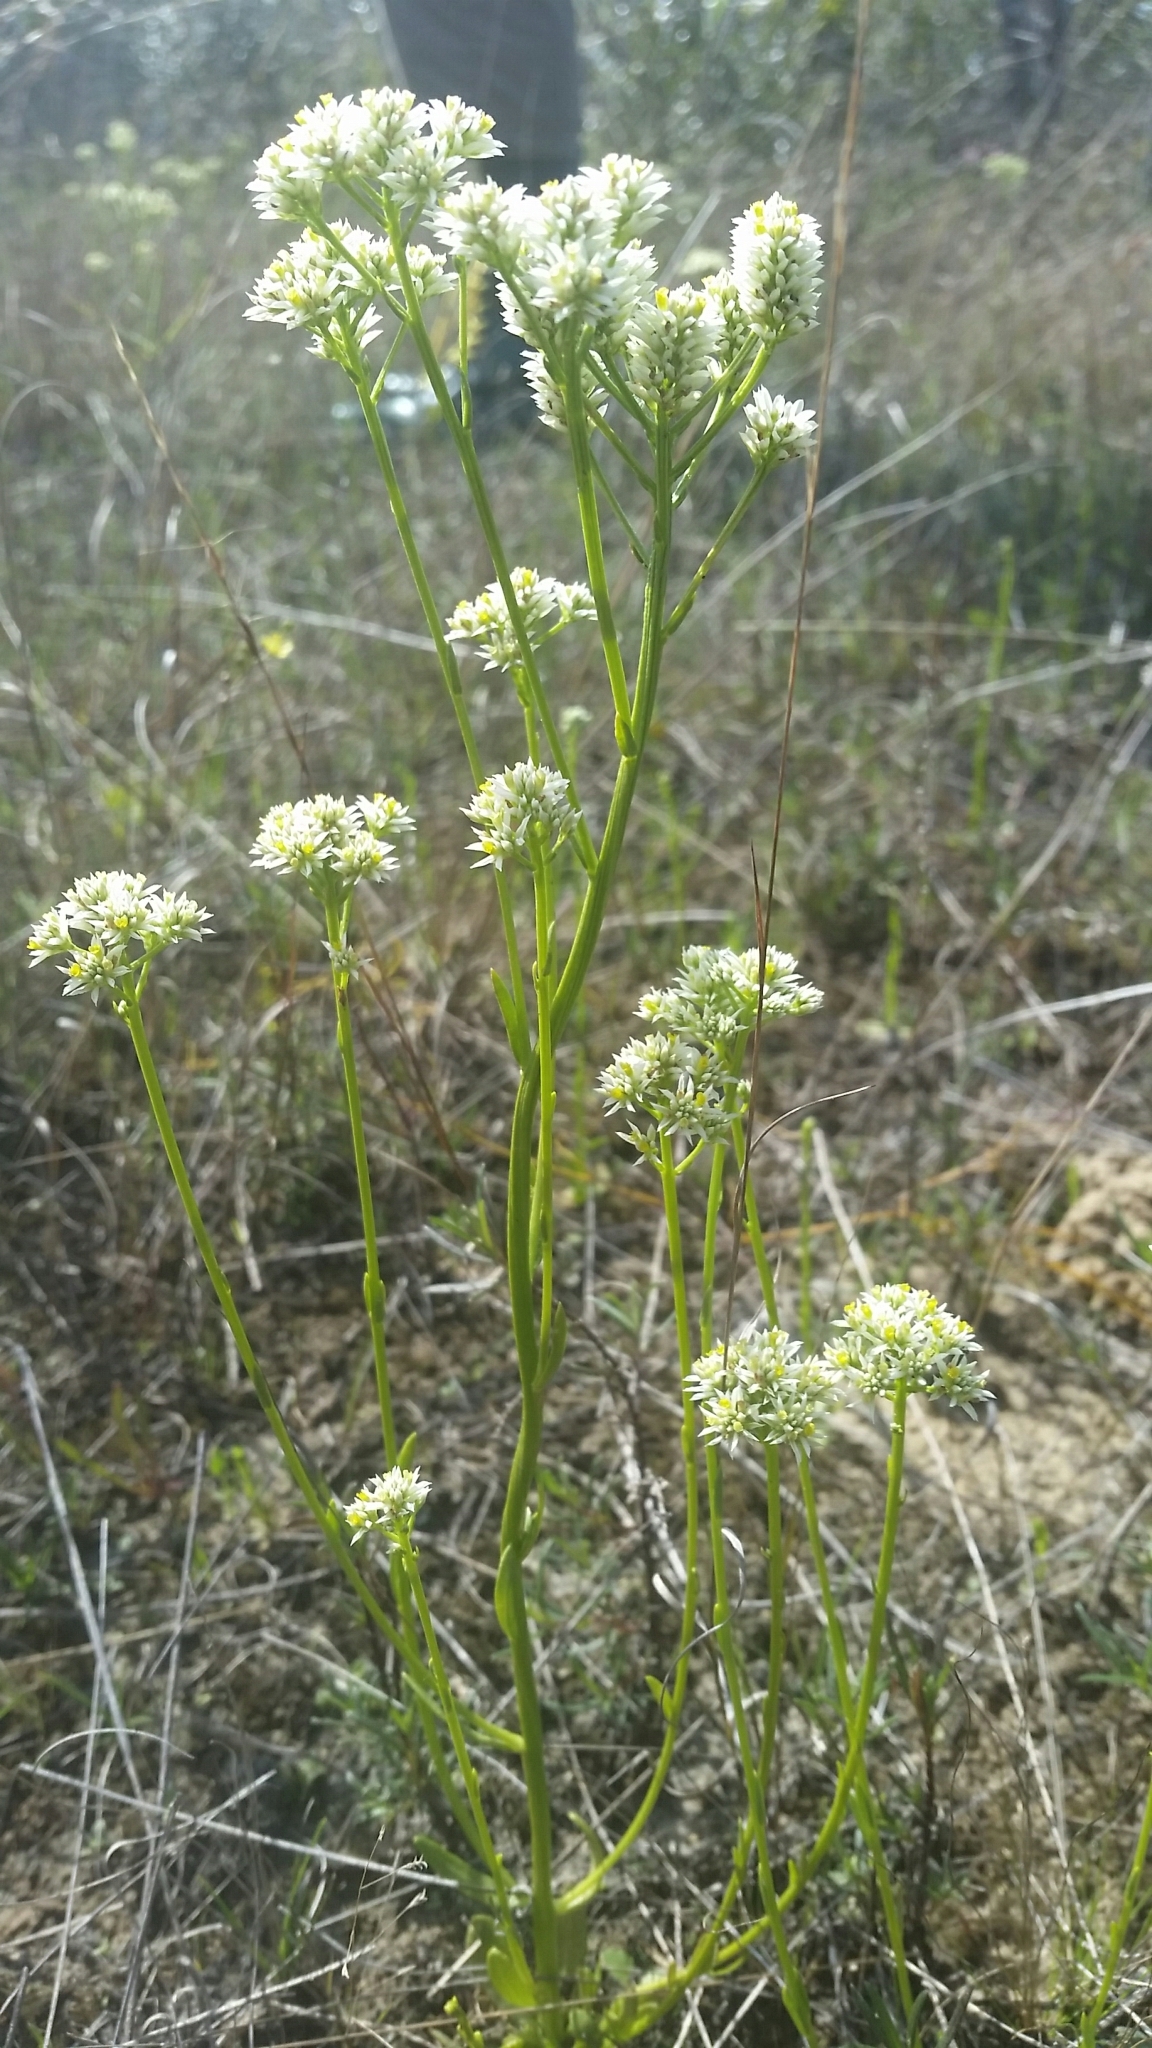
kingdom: Plantae
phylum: Tracheophyta
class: Magnoliopsida
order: Fabales
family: Polygalaceae
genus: Polygala
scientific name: Polygala baldwinii
